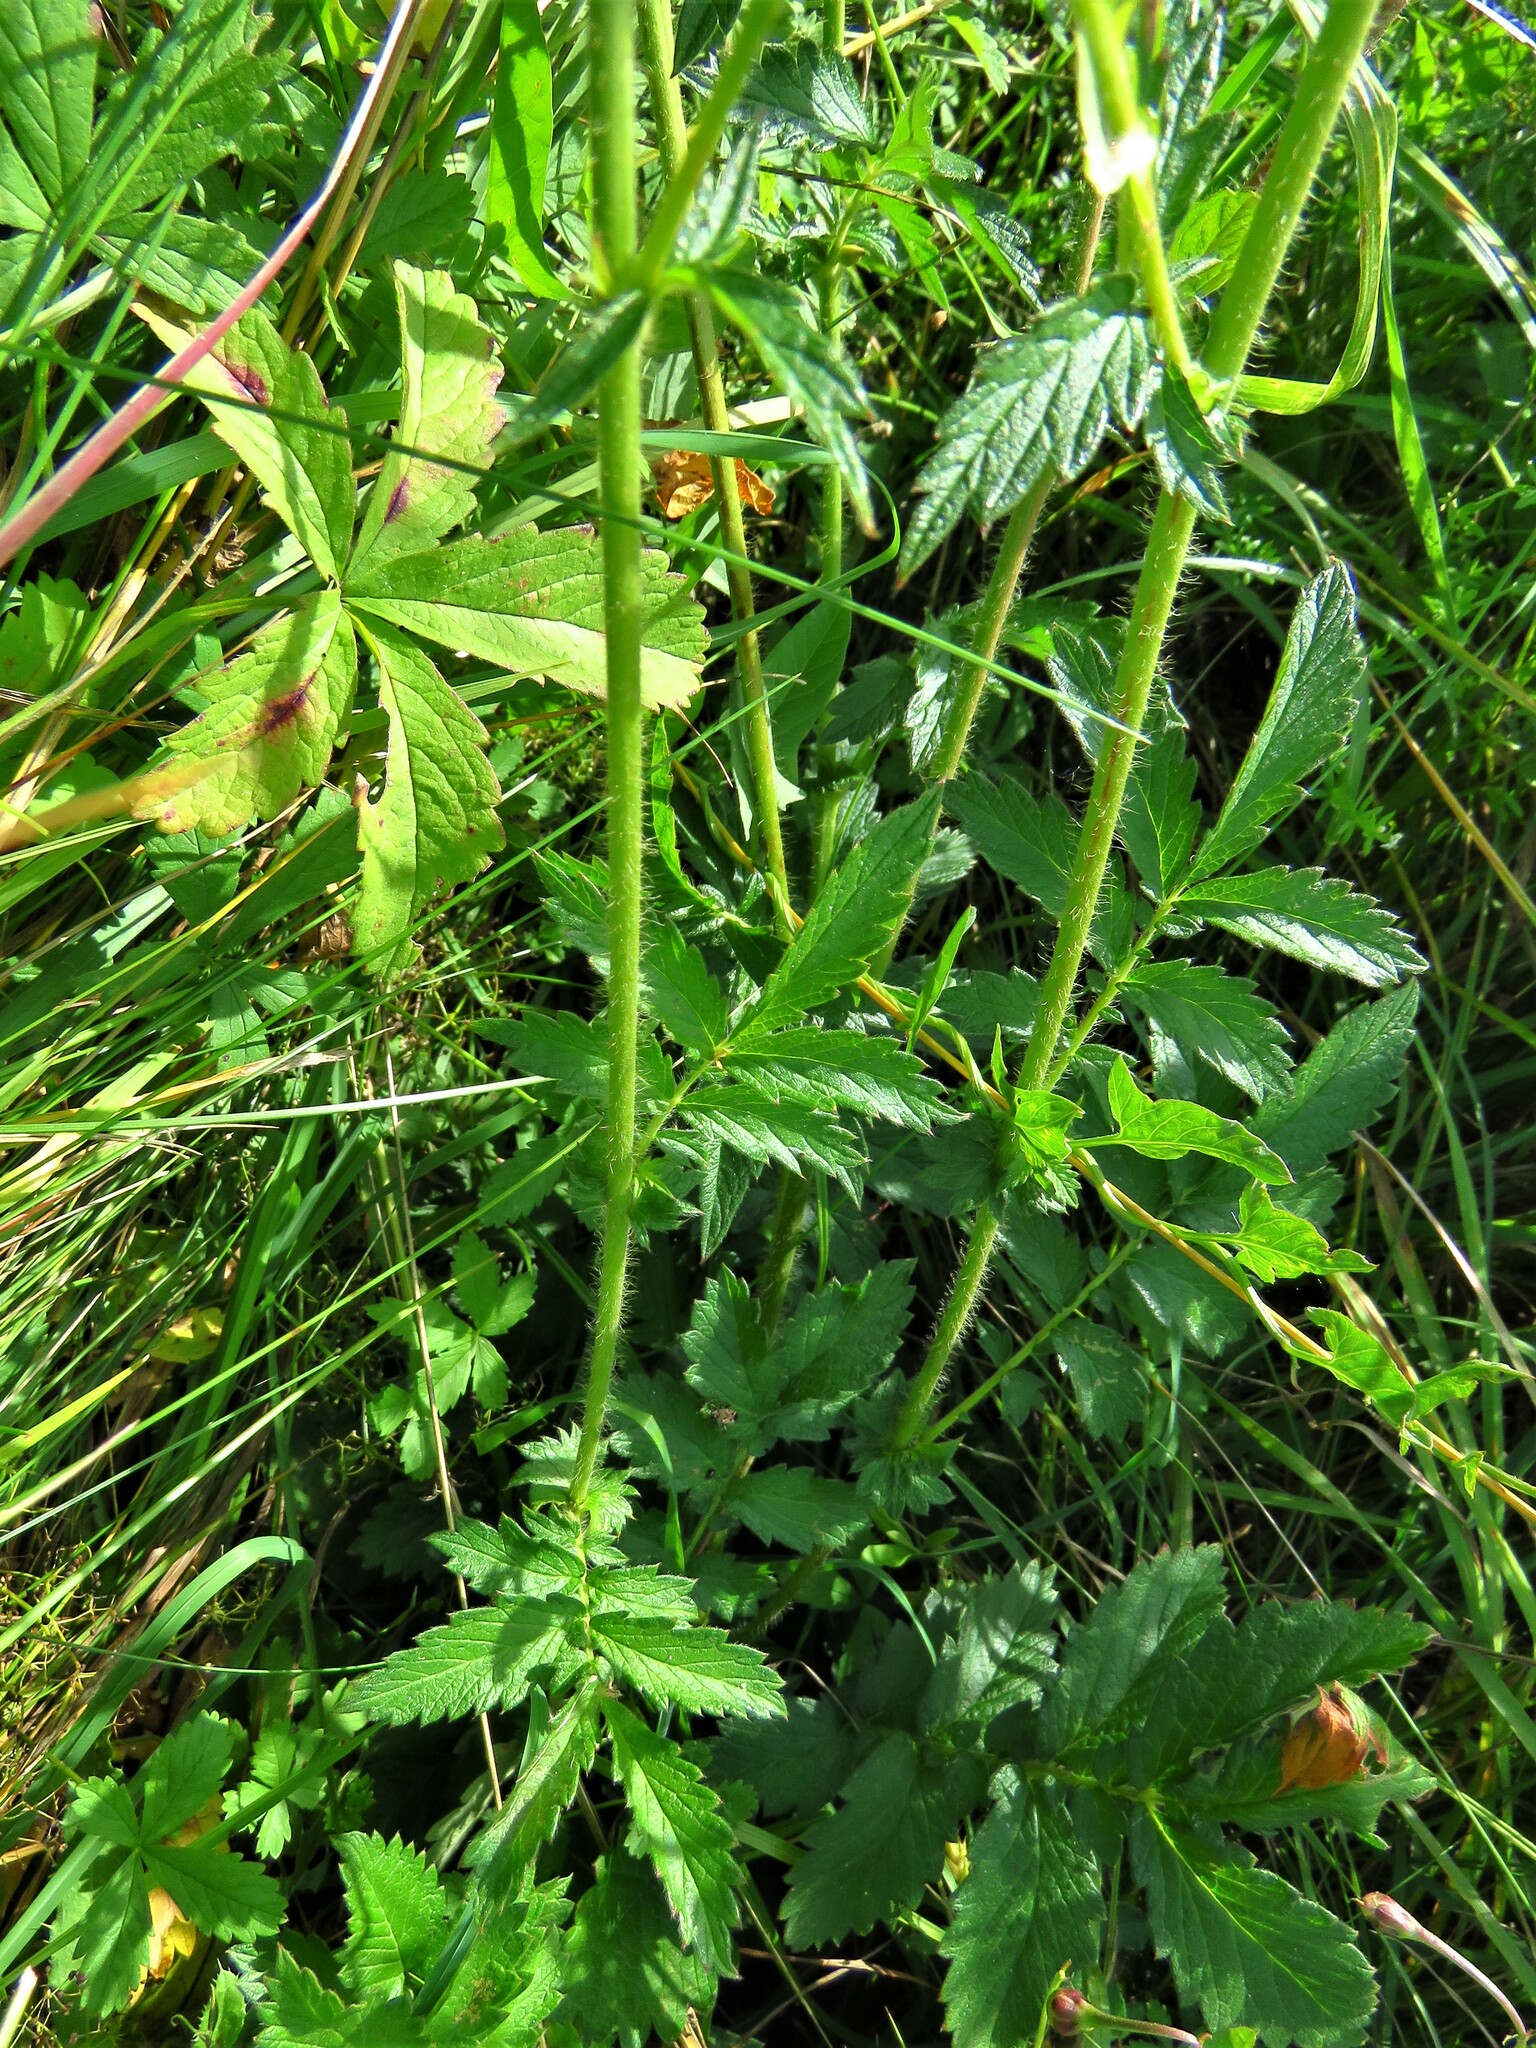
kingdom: Plantae
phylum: Tracheophyta
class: Magnoliopsida
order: Rosales
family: Rosaceae
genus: Agrimonia
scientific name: Agrimonia eupatoria
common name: Agrimony
